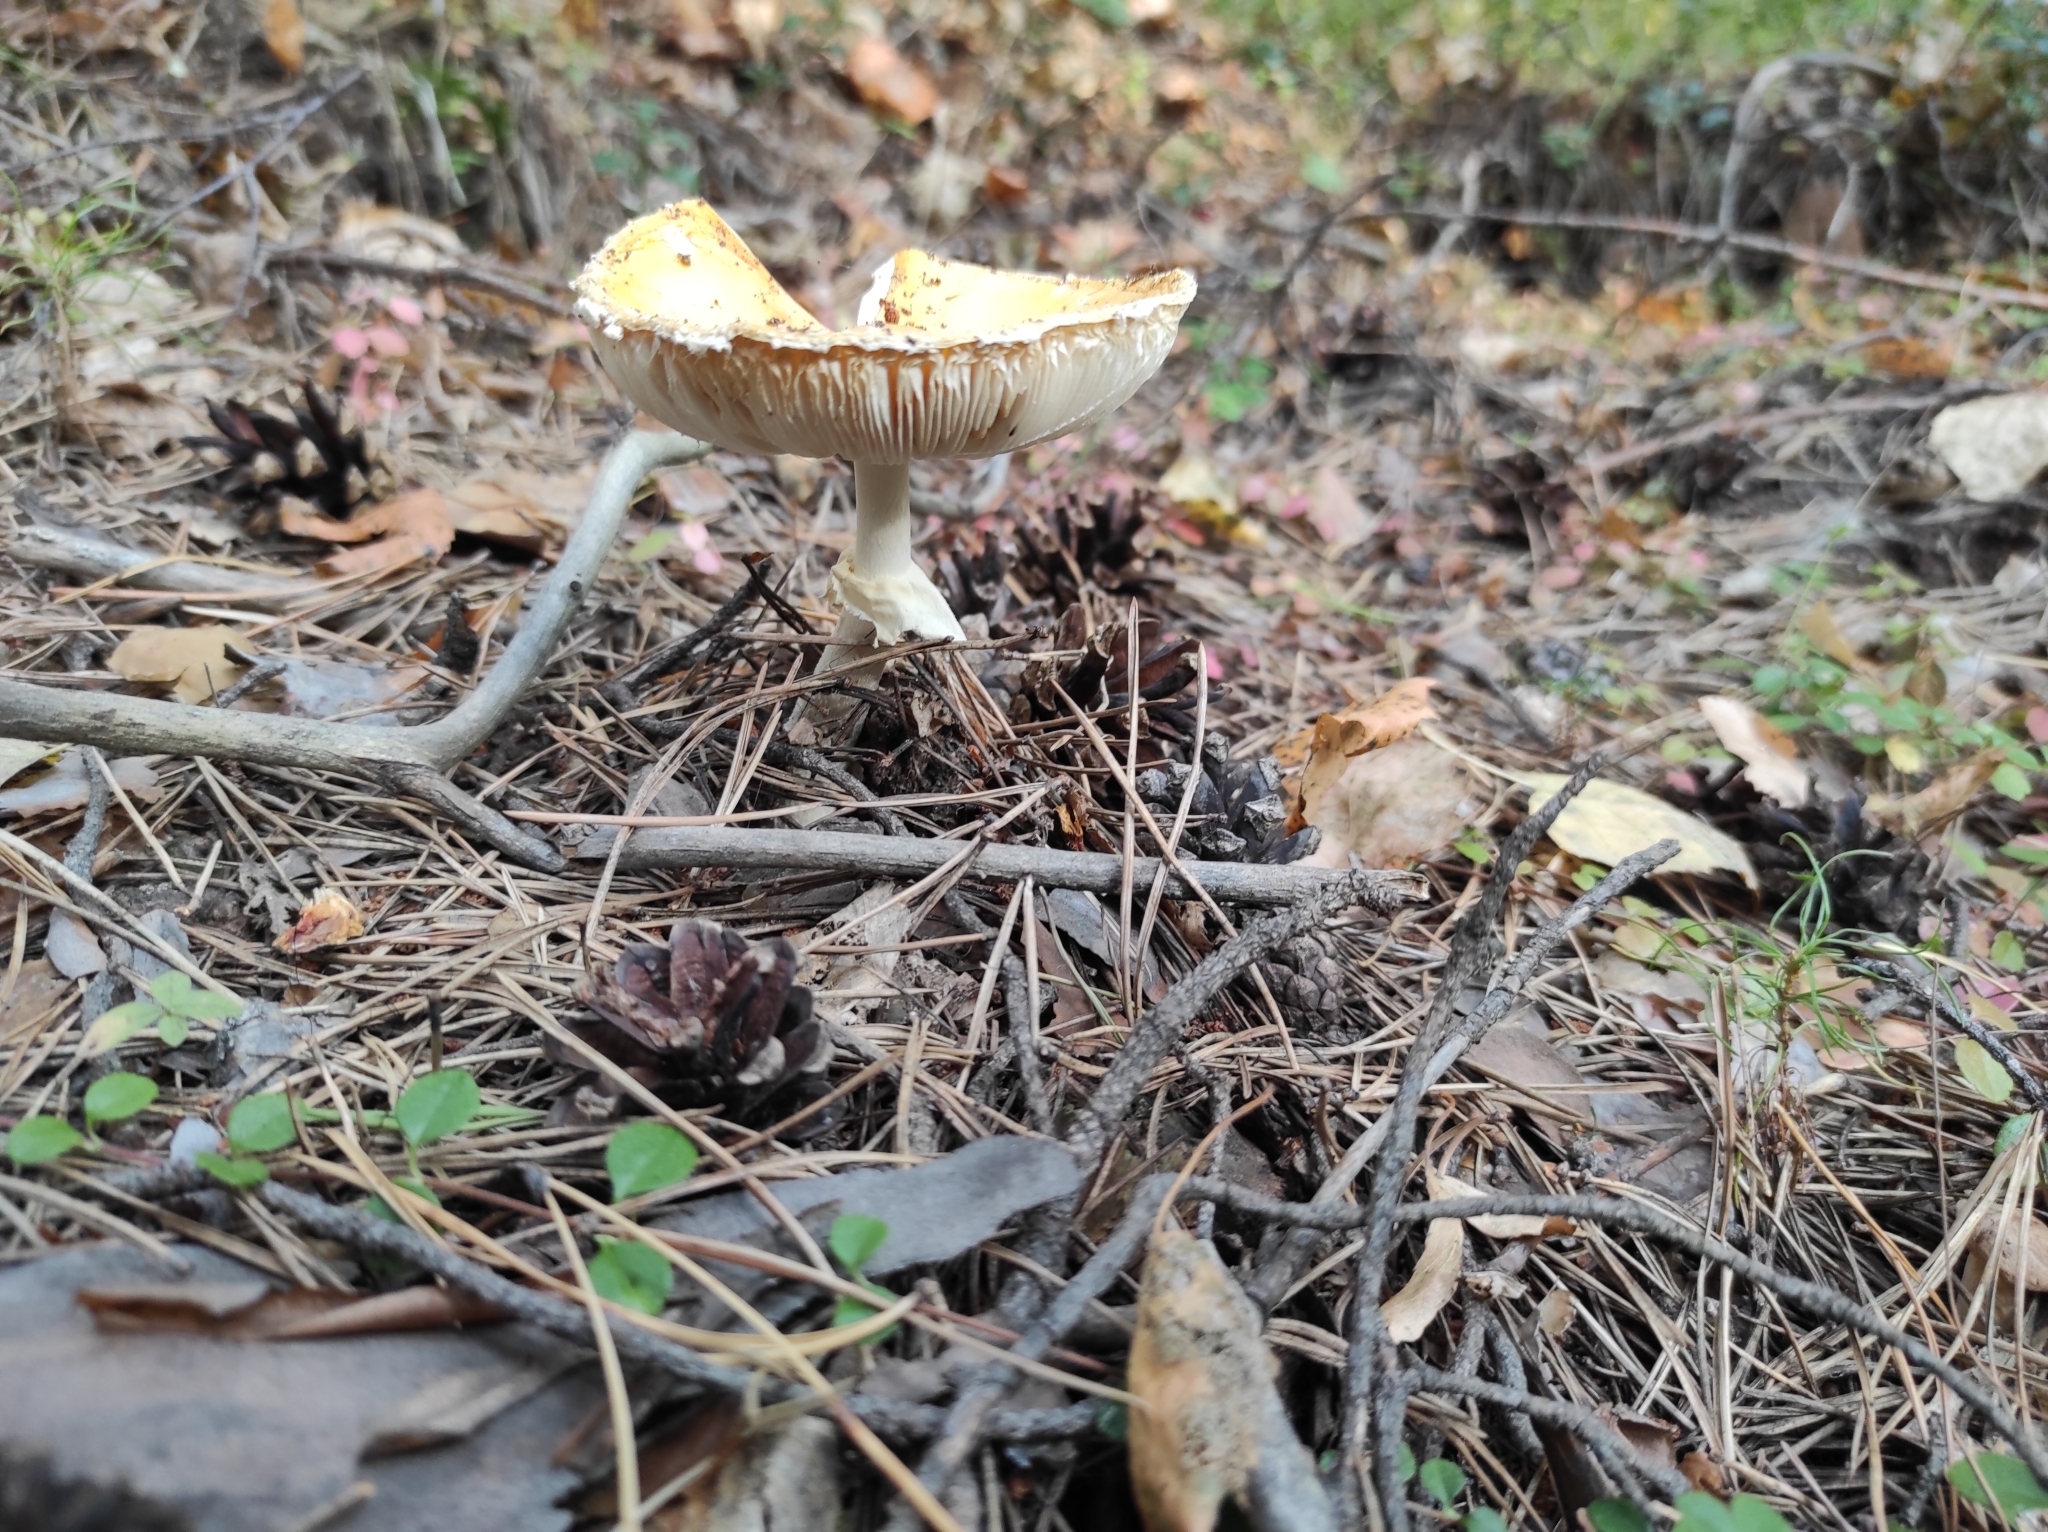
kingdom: Fungi
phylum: Basidiomycota
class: Agaricomycetes
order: Agaricales
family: Amanitaceae
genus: Amanita
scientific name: Amanita muscaria
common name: Fly agaric
